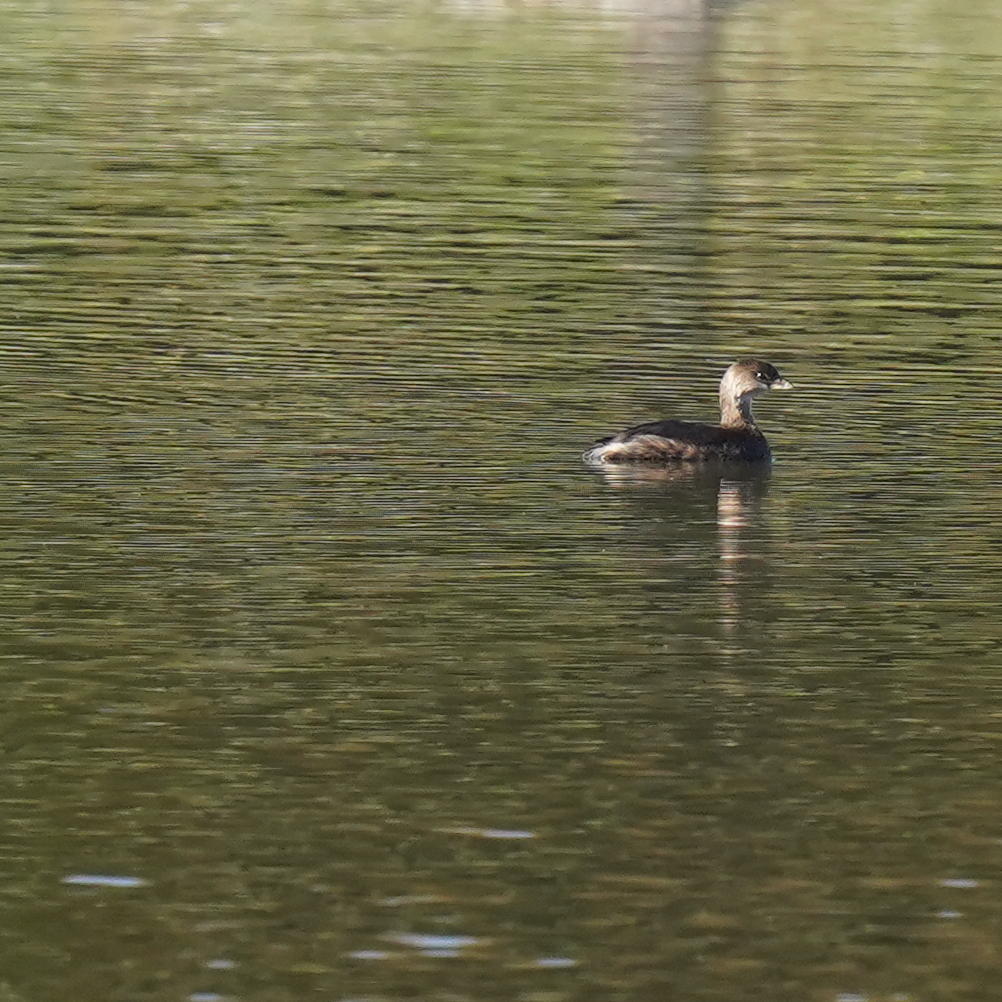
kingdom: Animalia
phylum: Chordata
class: Aves
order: Podicipediformes
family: Podicipedidae
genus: Podilymbus
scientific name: Podilymbus podiceps
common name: Pied-billed grebe
